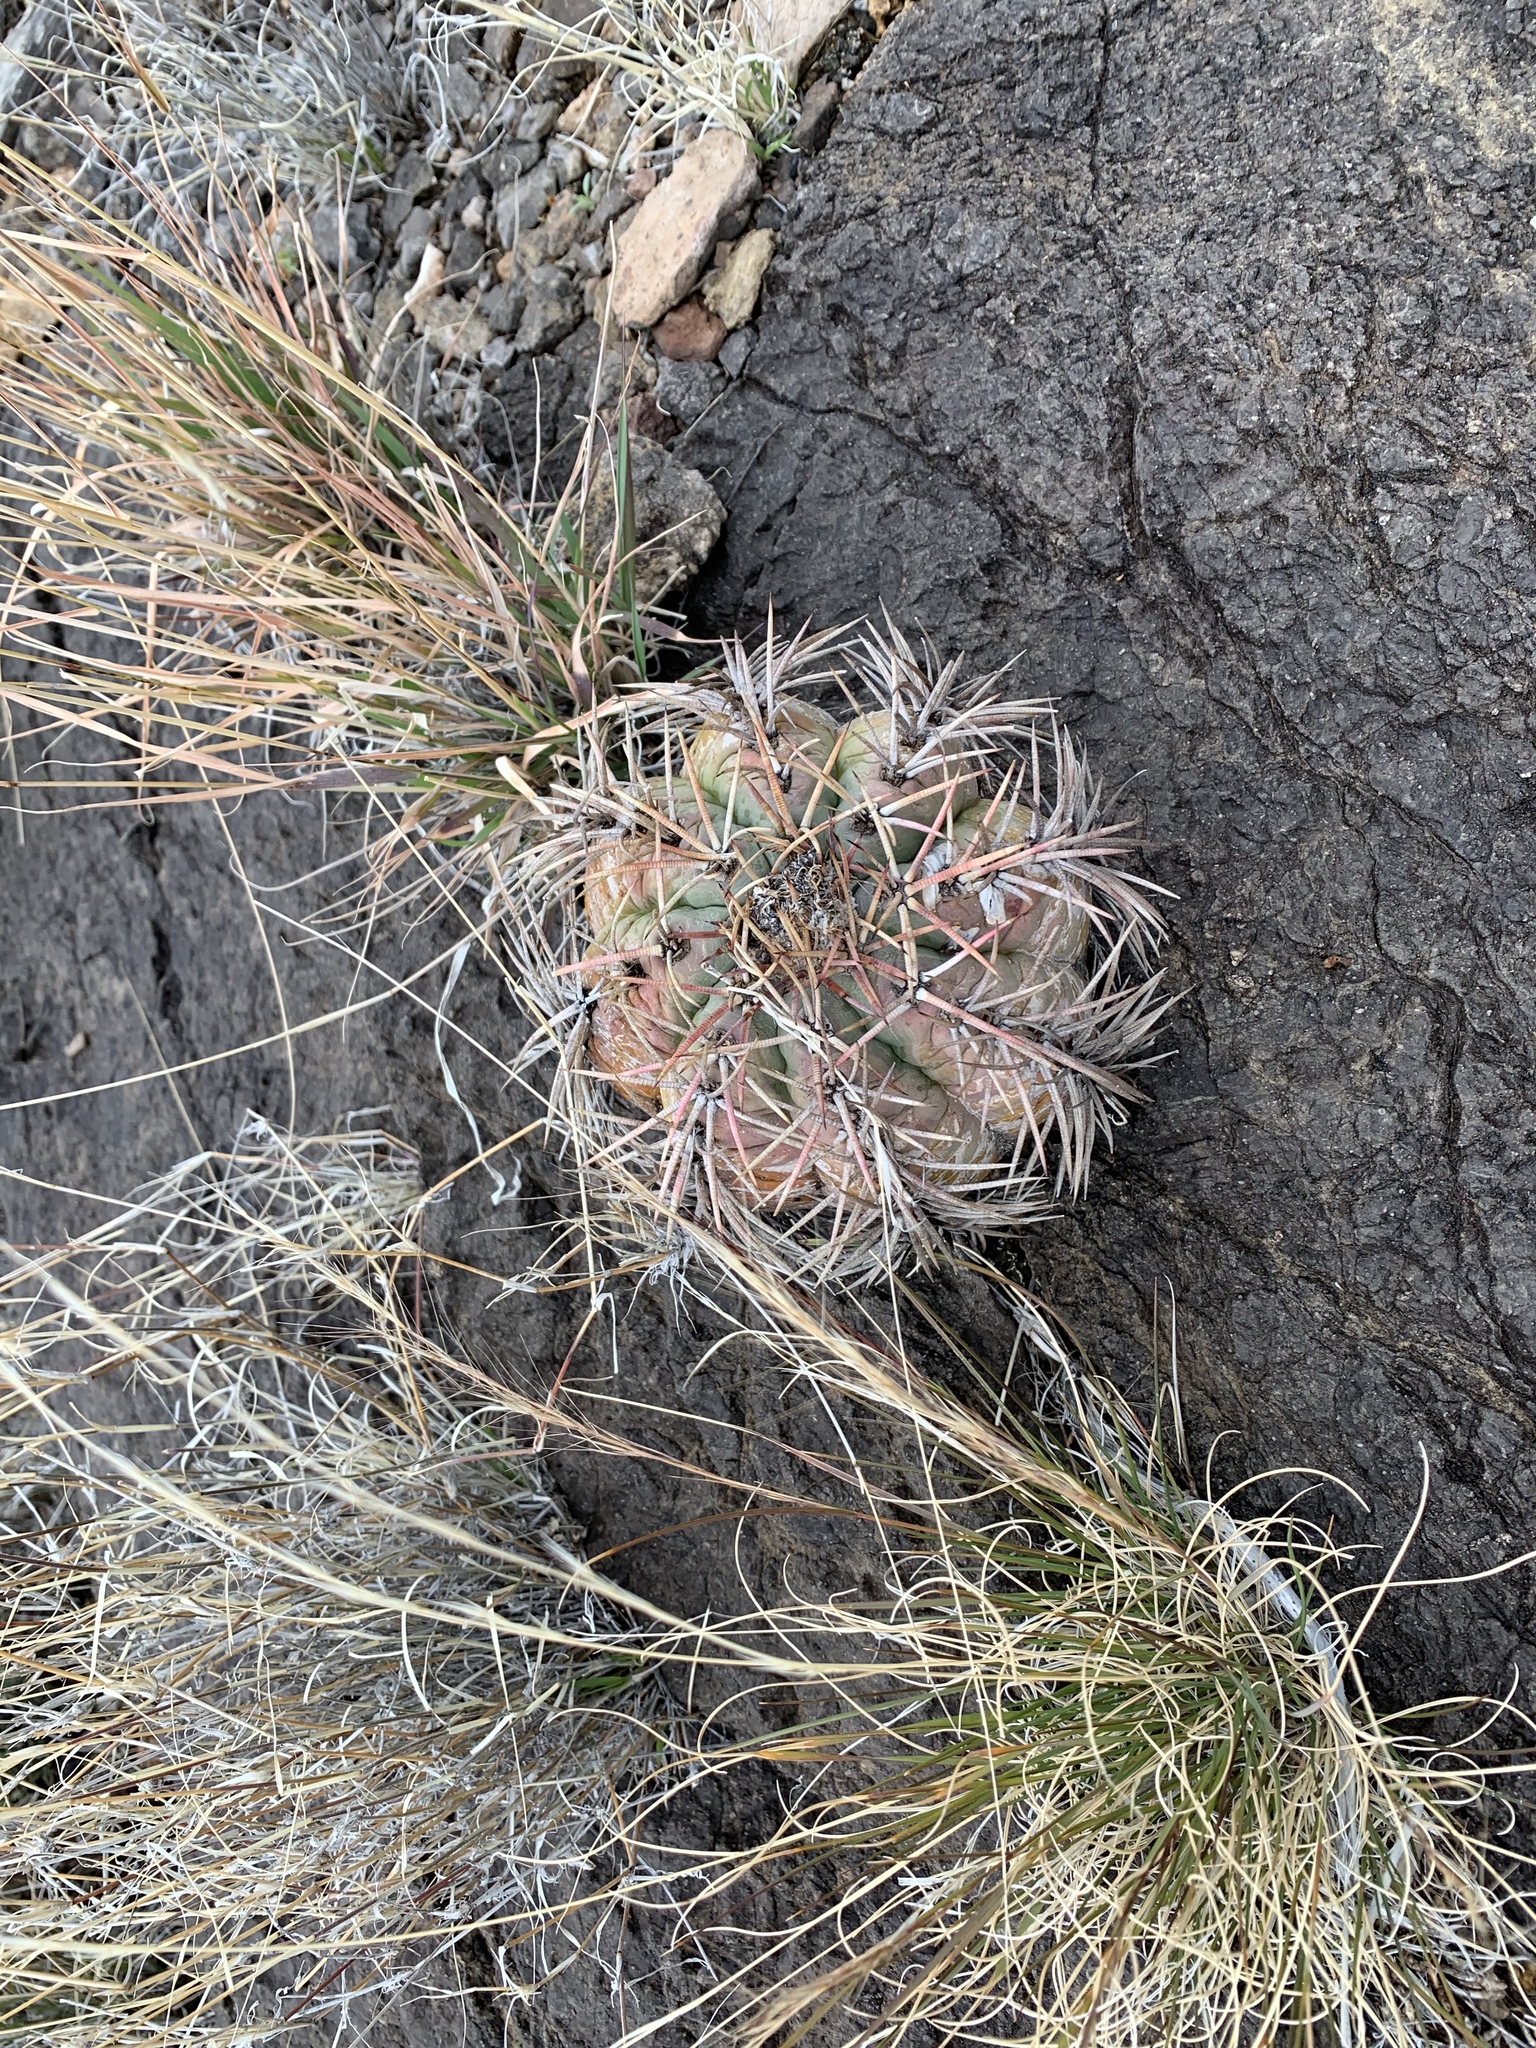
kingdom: Plantae
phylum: Tracheophyta
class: Magnoliopsida
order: Caryophyllales
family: Cactaceae
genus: Echinocactus
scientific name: Echinocactus horizonthalonius
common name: Devilshead
